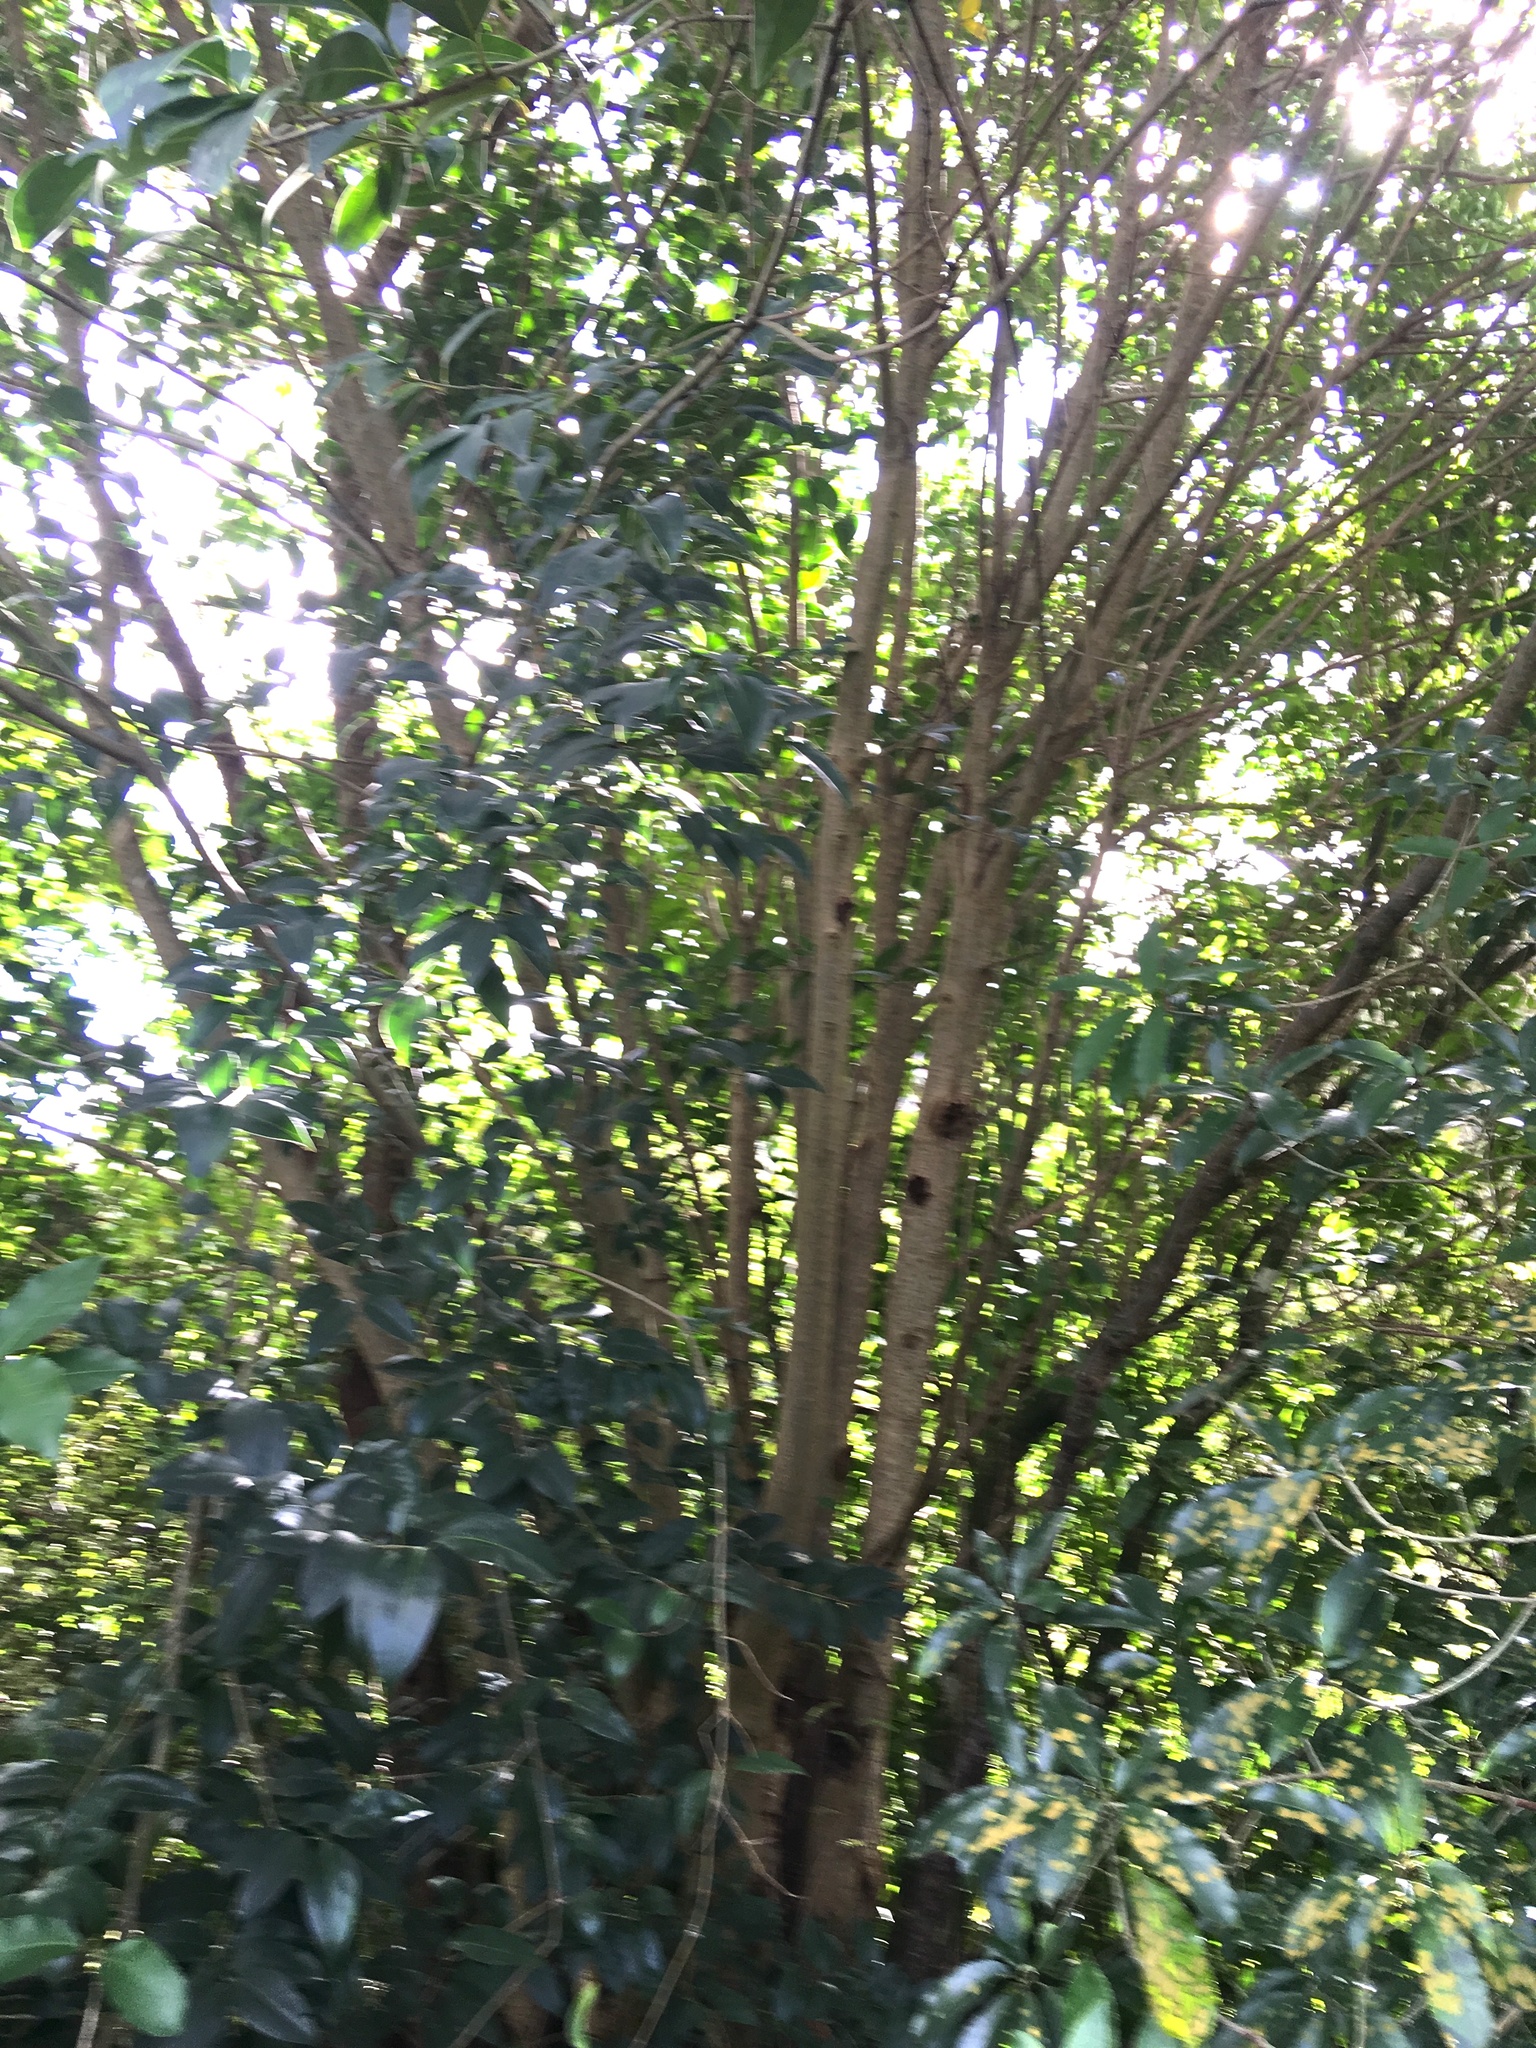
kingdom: Plantae
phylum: Tracheophyta
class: Magnoliopsida
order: Lamiales
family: Oleaceae
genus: Ligustrum
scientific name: Ligustrum lucidum
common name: Glossy privet
